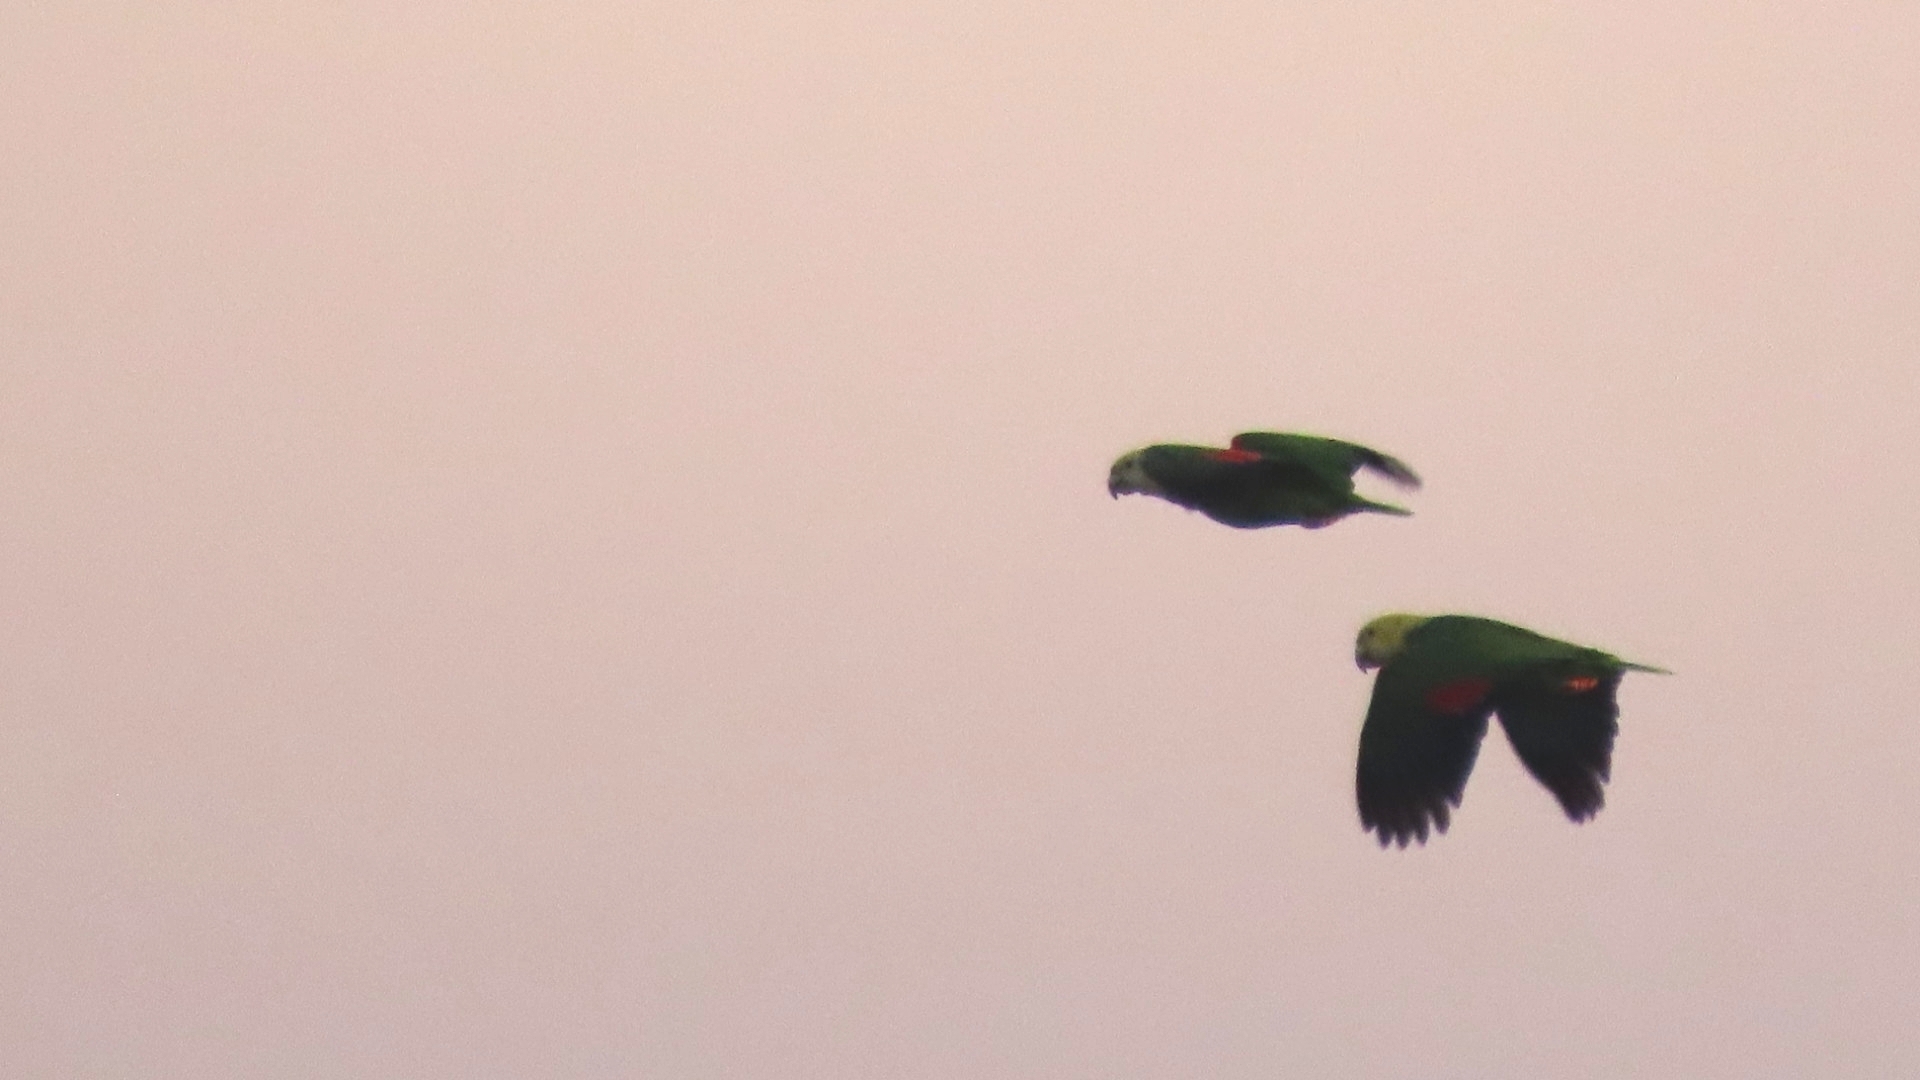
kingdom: Animalia
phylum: Chordata
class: Aves
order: Psittaciformes
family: Psittacidae
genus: Amazona
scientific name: Amazona oratrix
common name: Yellow-headed amazon
